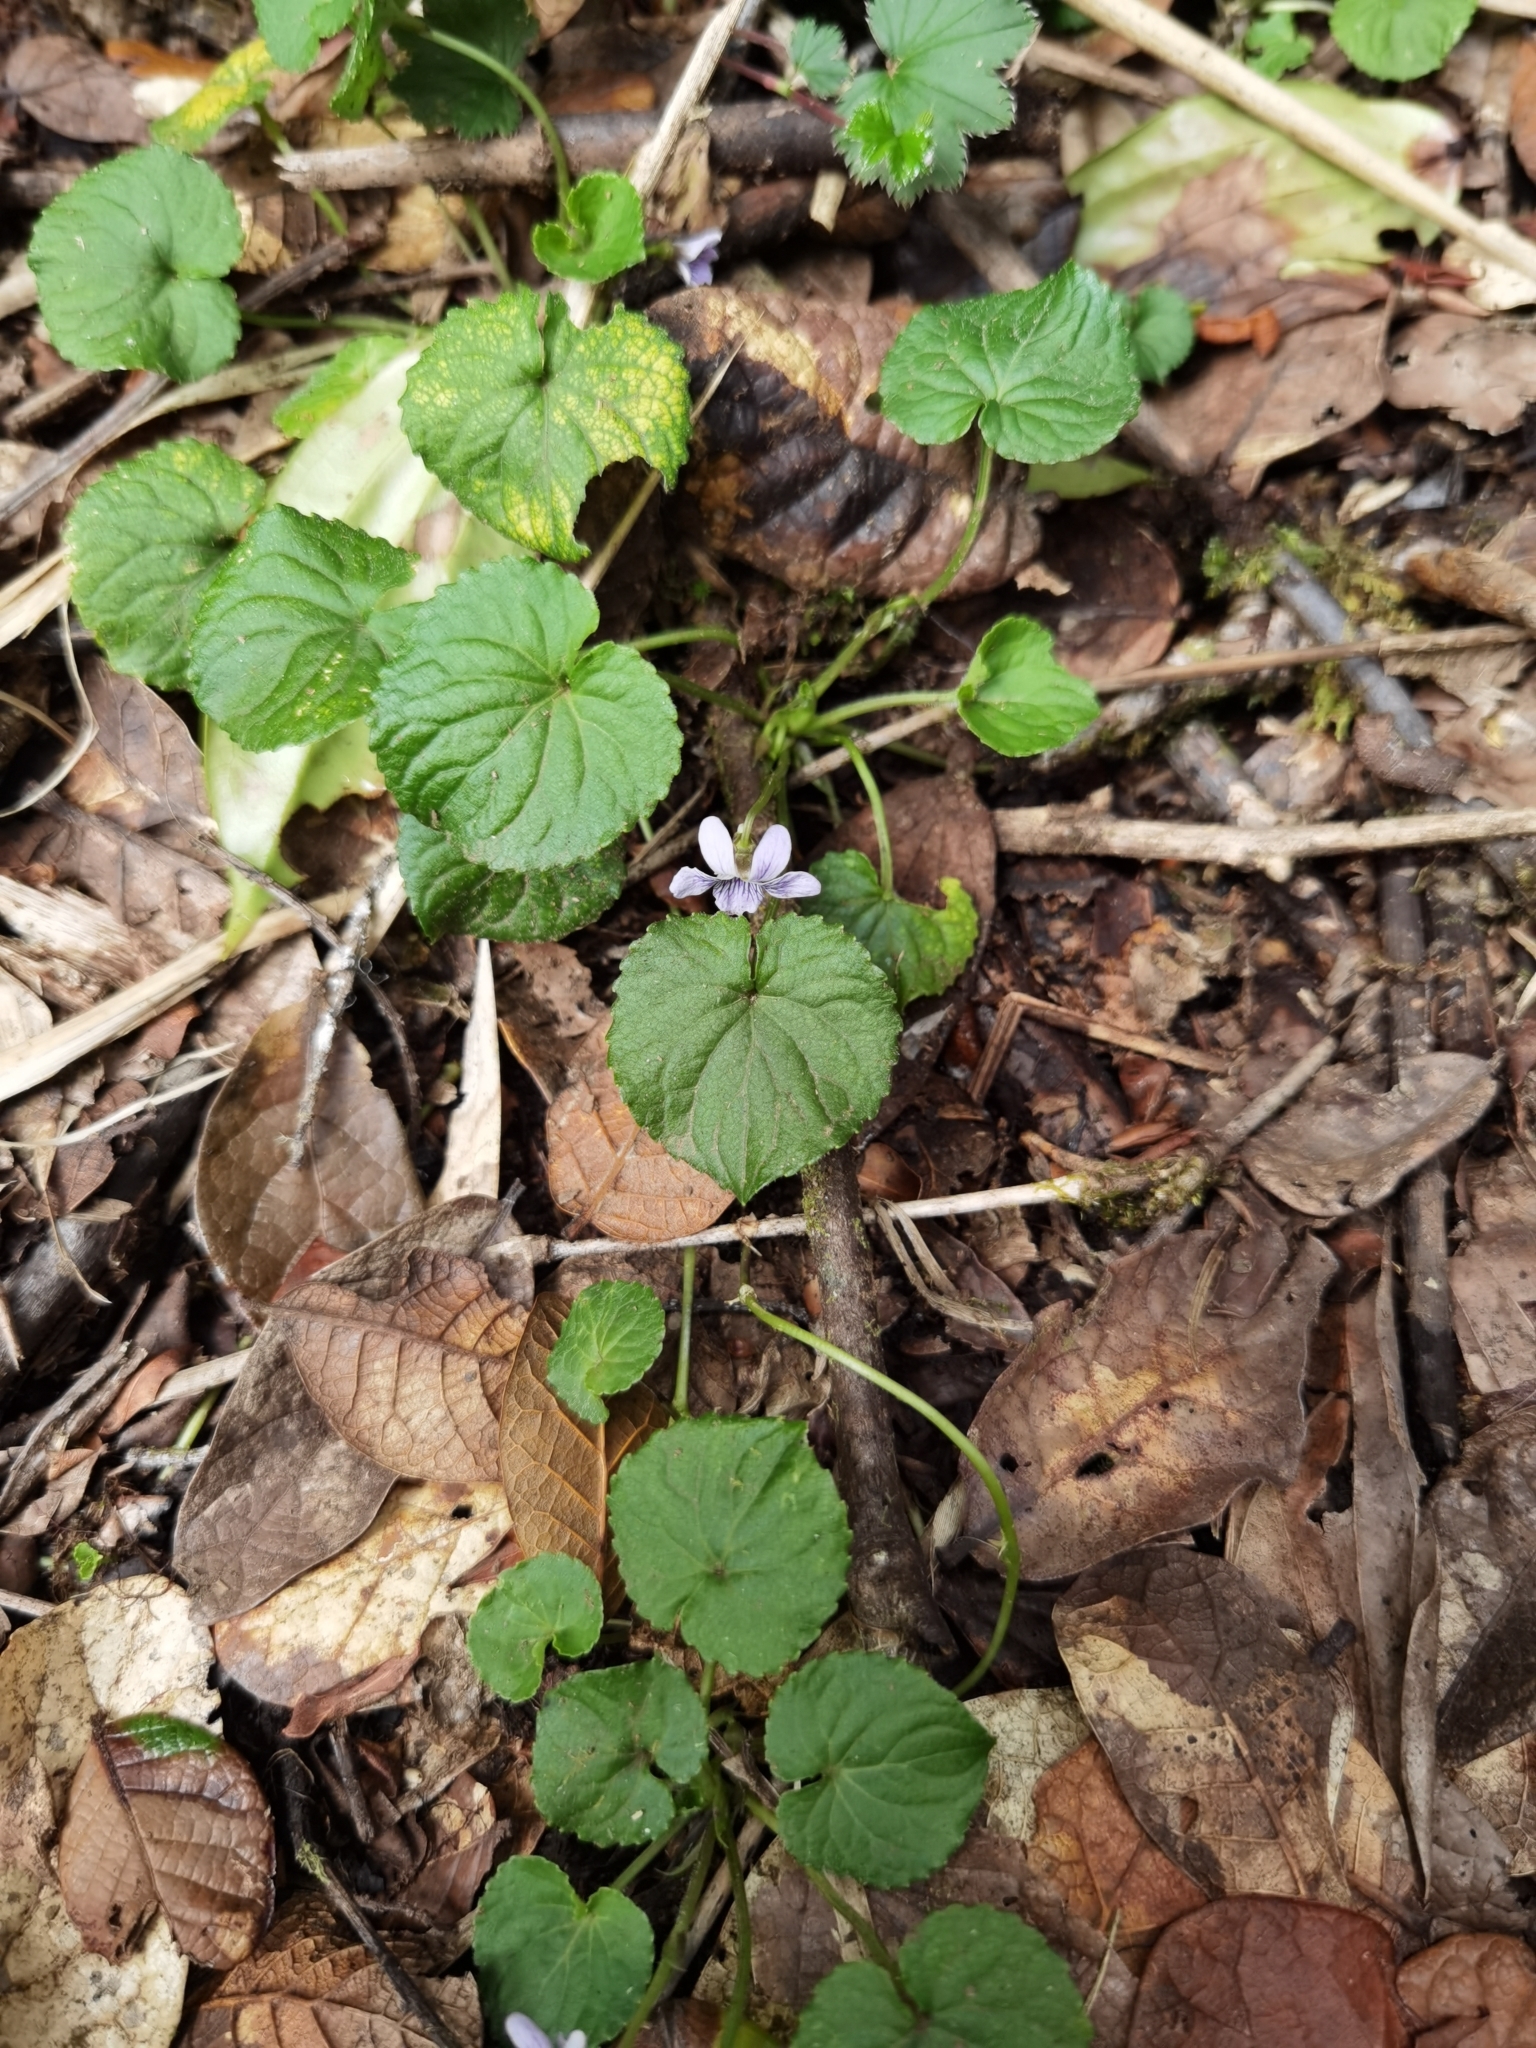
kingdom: Plantae
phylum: Tracheophyta
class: Magnoliopsida
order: Malpighiales
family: Violaceae
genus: Viola
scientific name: Viola guatemalensis
